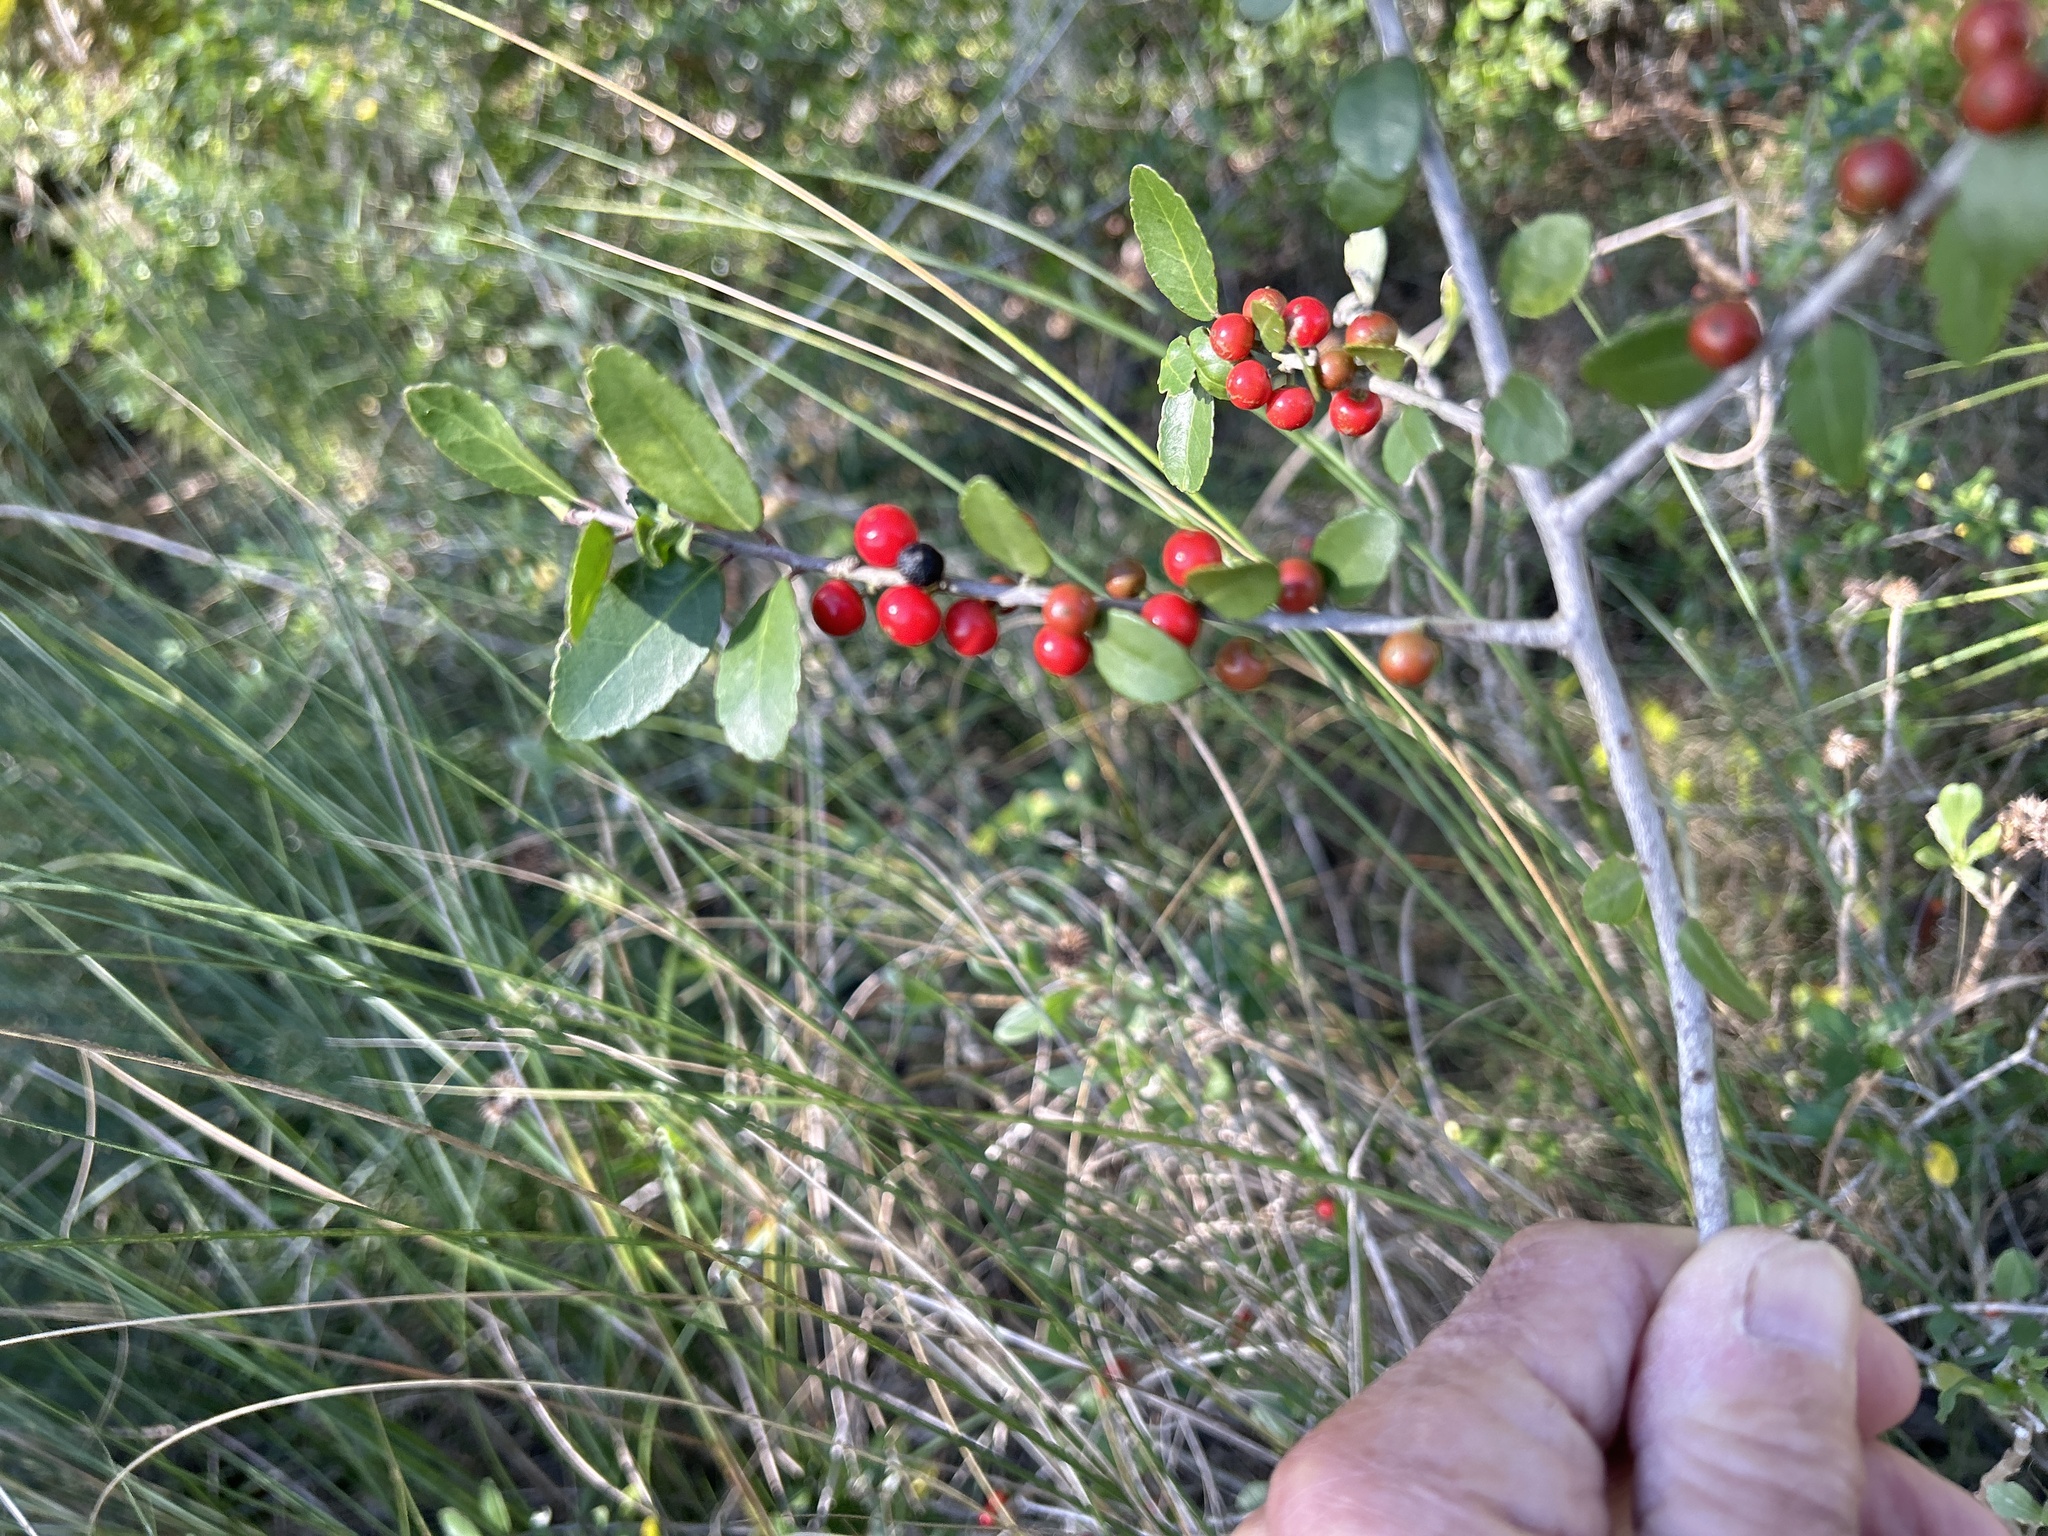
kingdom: Plantae
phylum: Tracheophyta
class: Magnoliopsida
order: Aquifoliales
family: Aquifoliaceae
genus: Ilex
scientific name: Ilex vomitoria
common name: Yaupon holly
